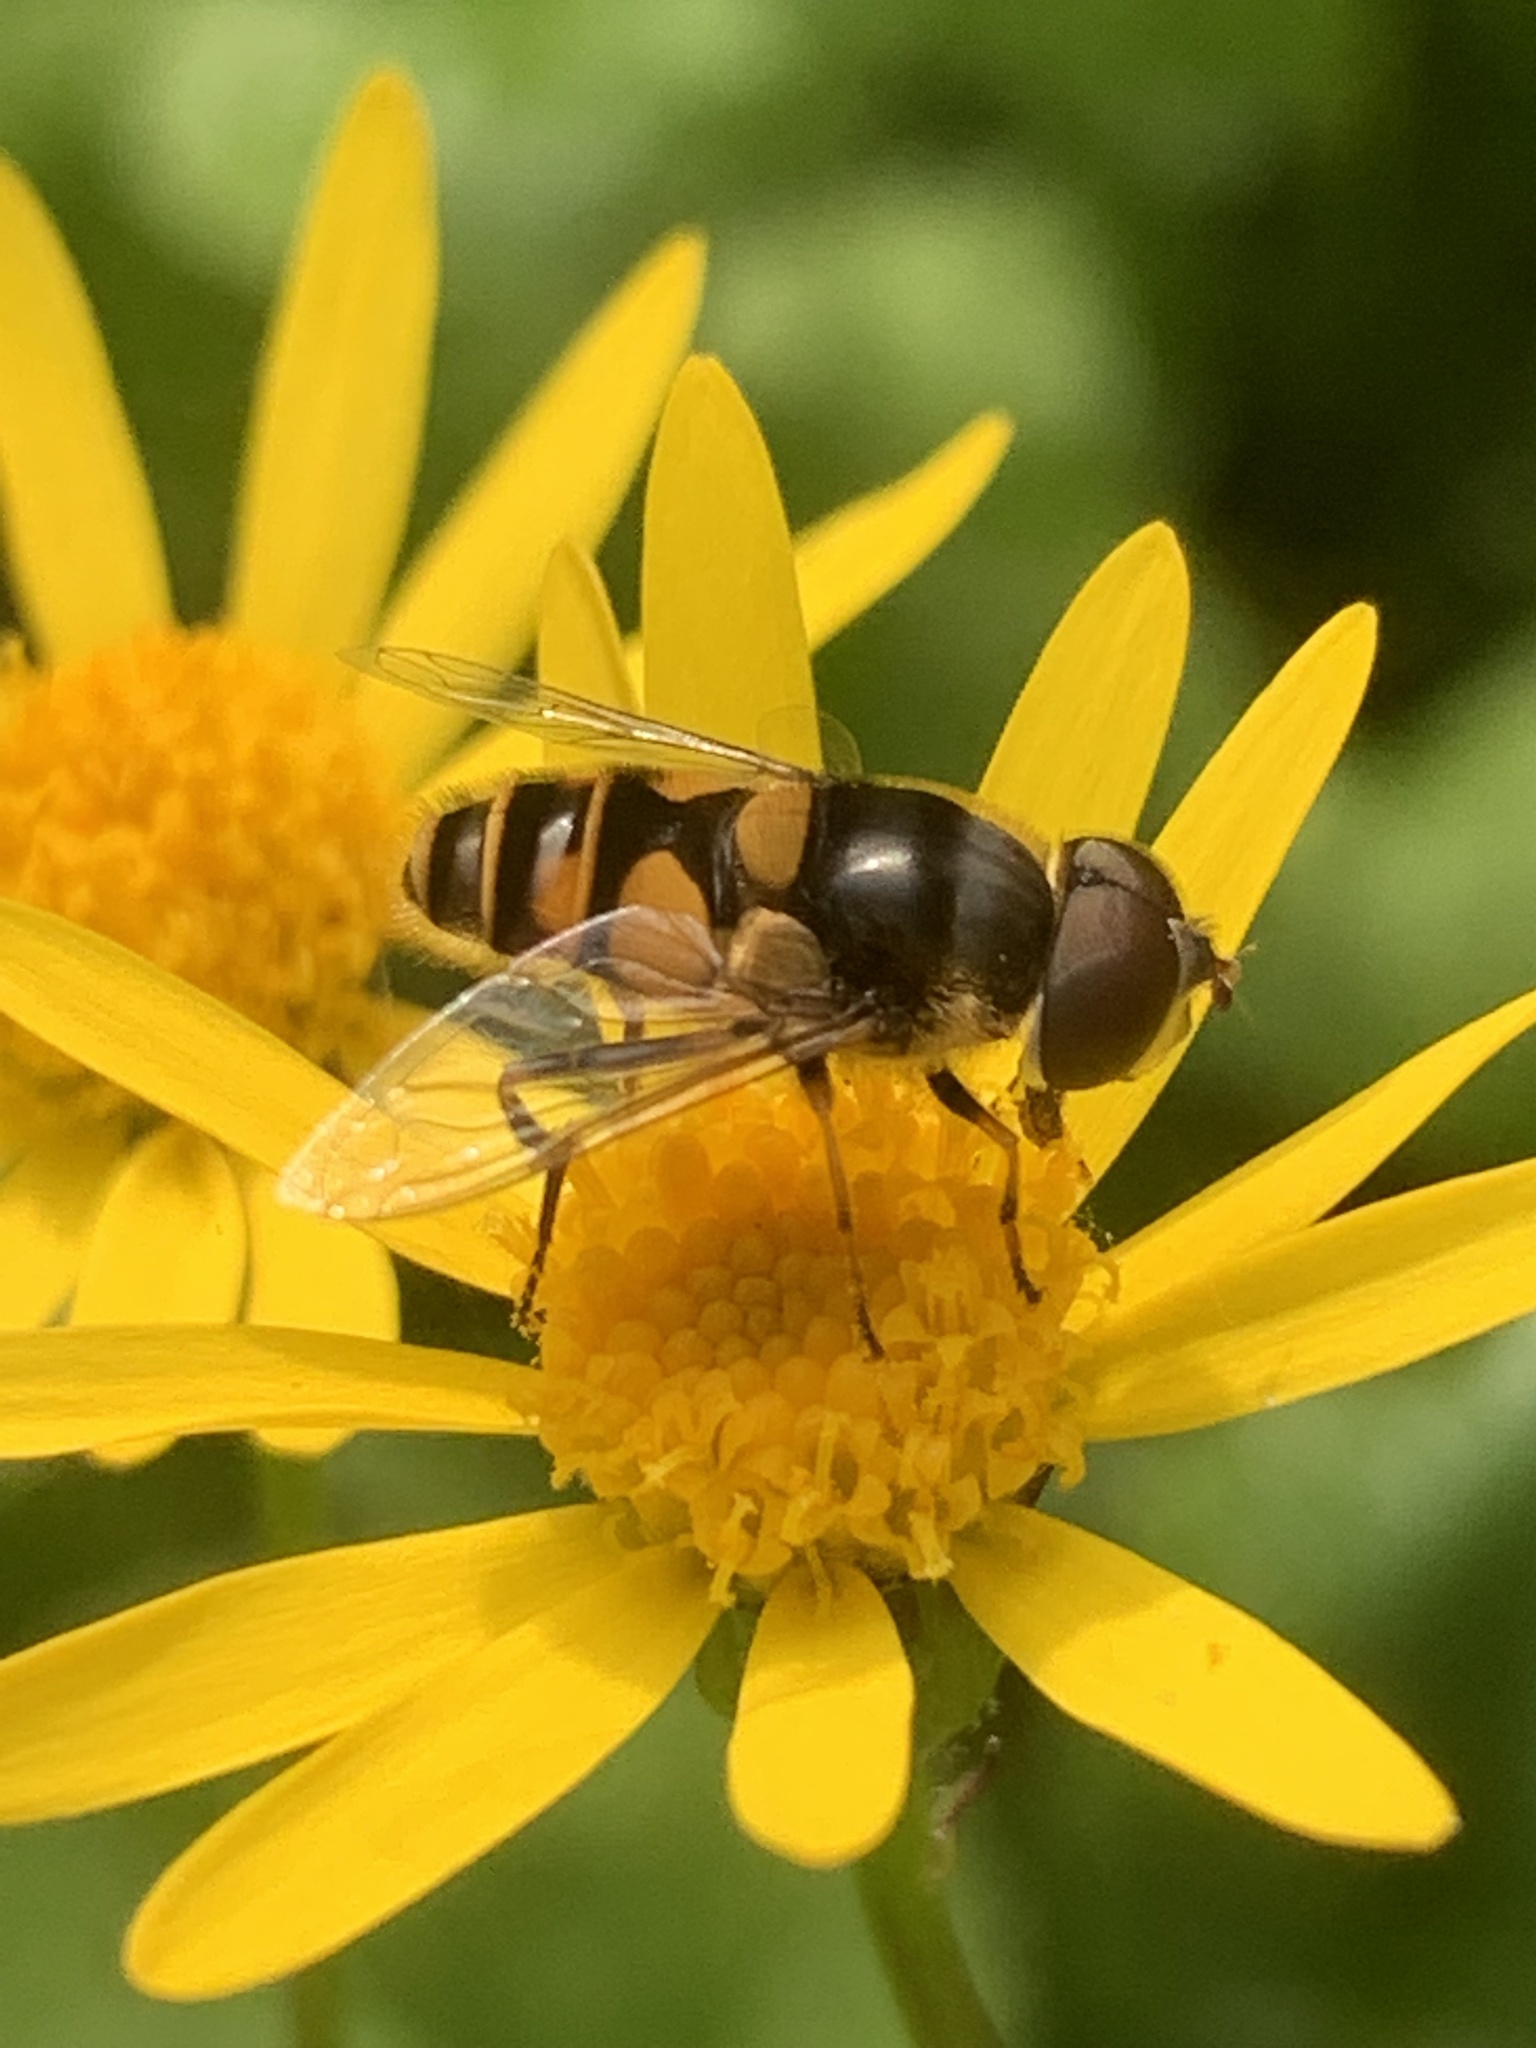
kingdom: Animalia
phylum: Arthropoda
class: Insecta
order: Diptera
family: Syrphidae
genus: Eristalis
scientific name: Eristalis transversa
